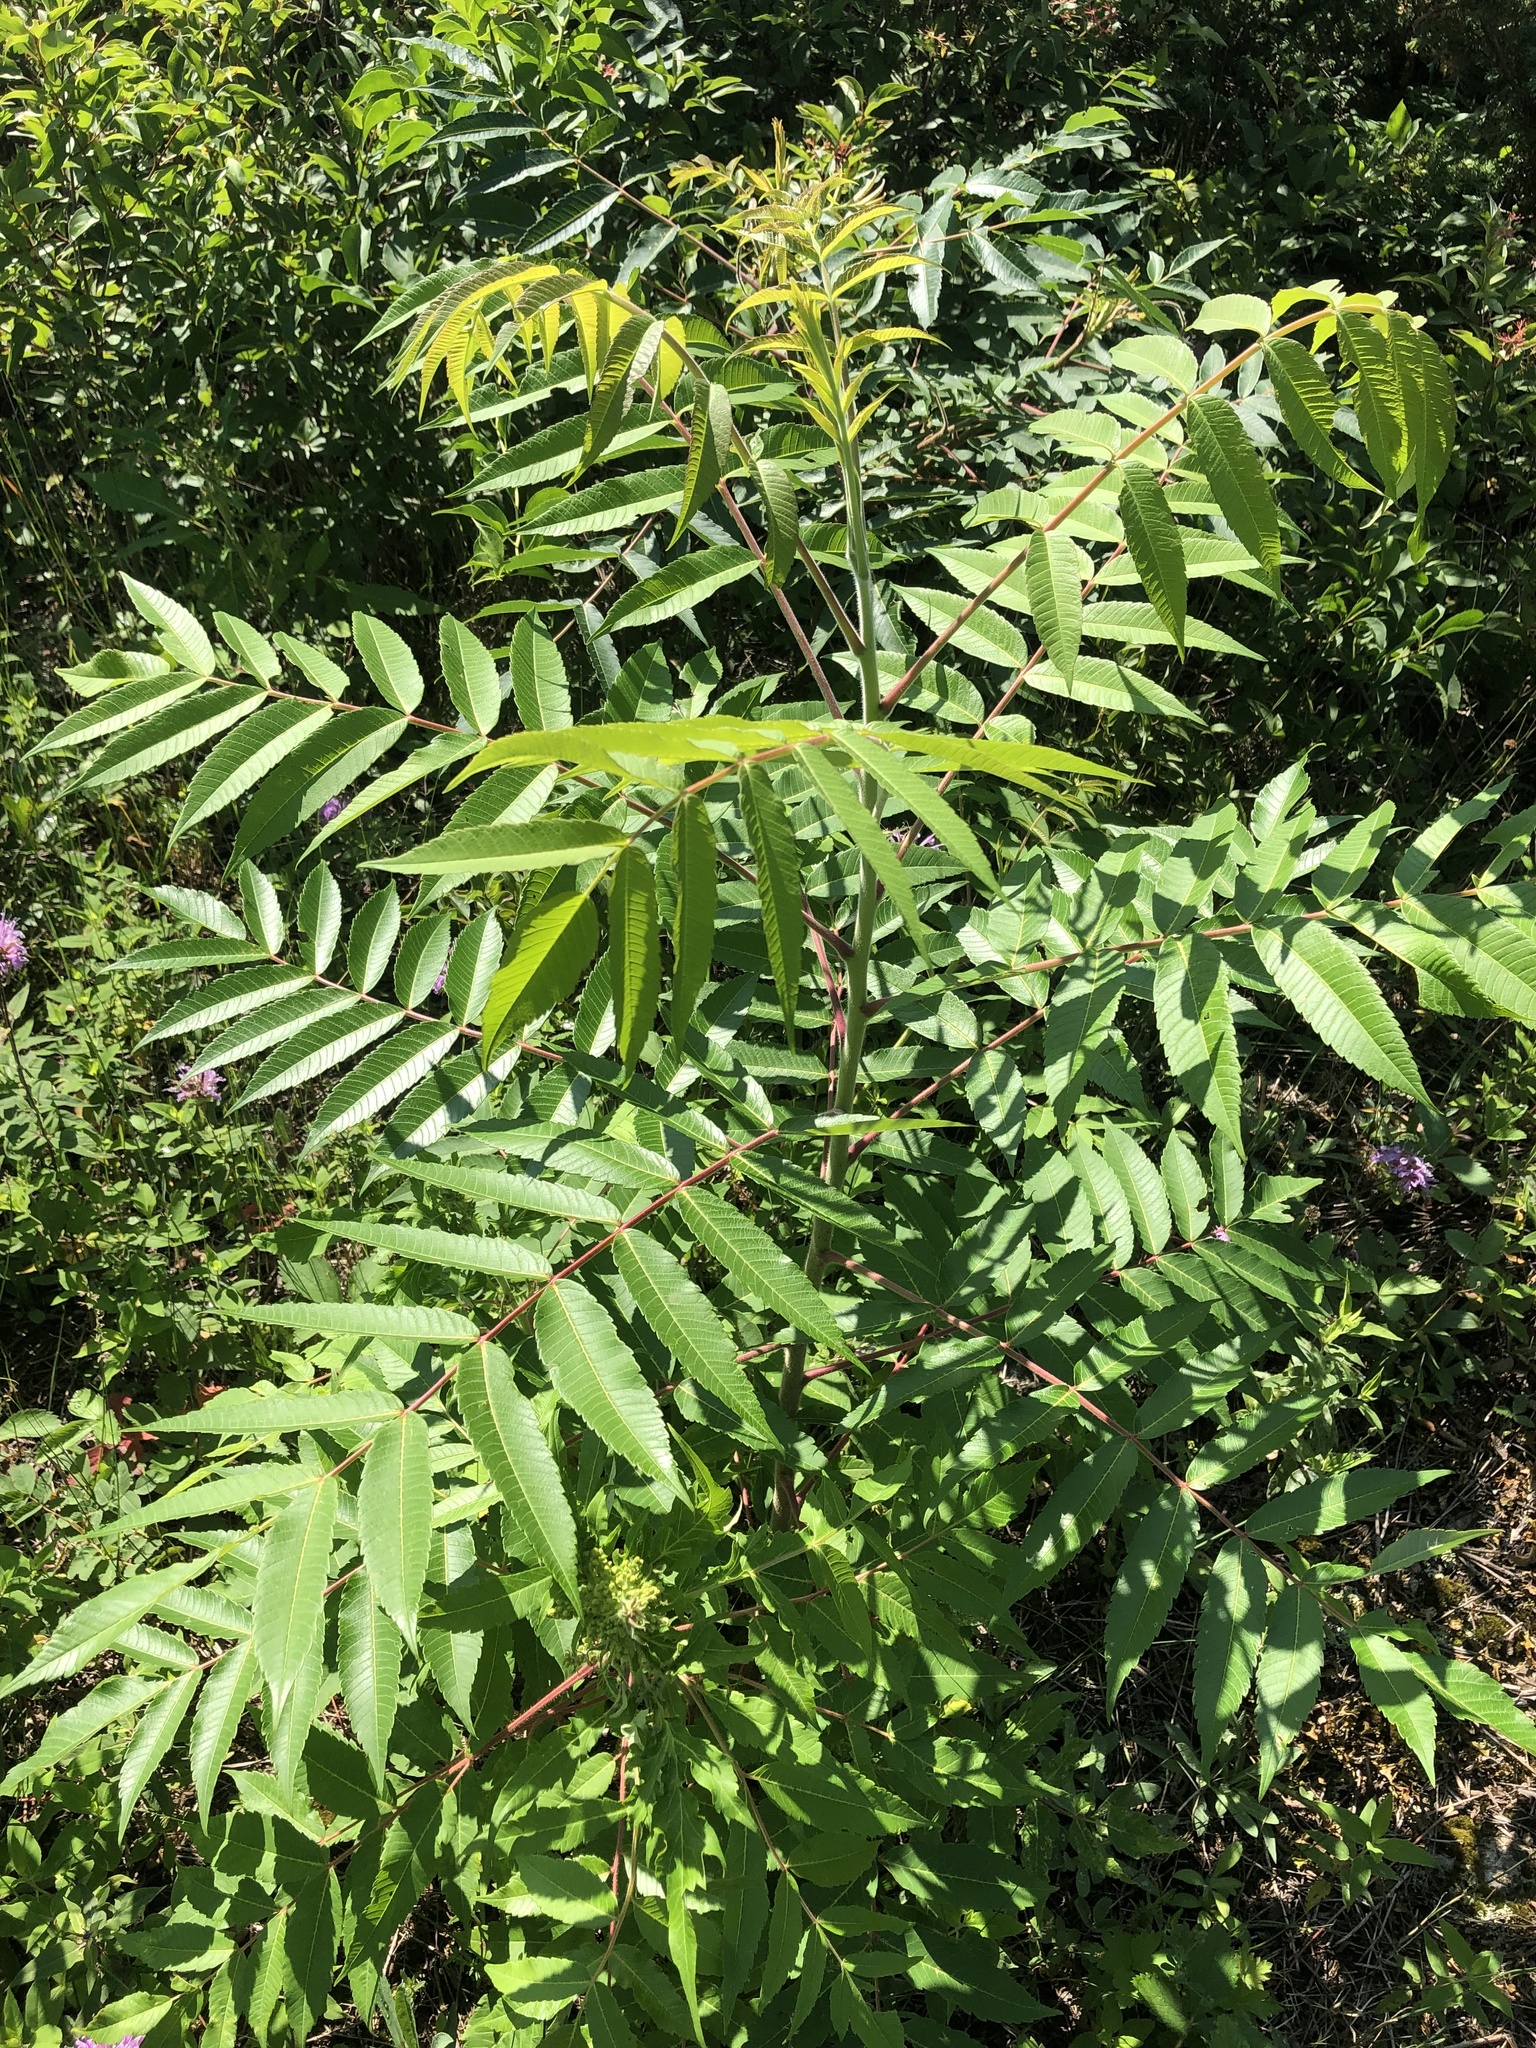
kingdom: Plantae
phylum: Tracheophyta
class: Magnoliopsida
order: Sapindales
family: Anacardiaceae
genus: Rhus
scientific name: Rhus typhina
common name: Staghorn sumac
